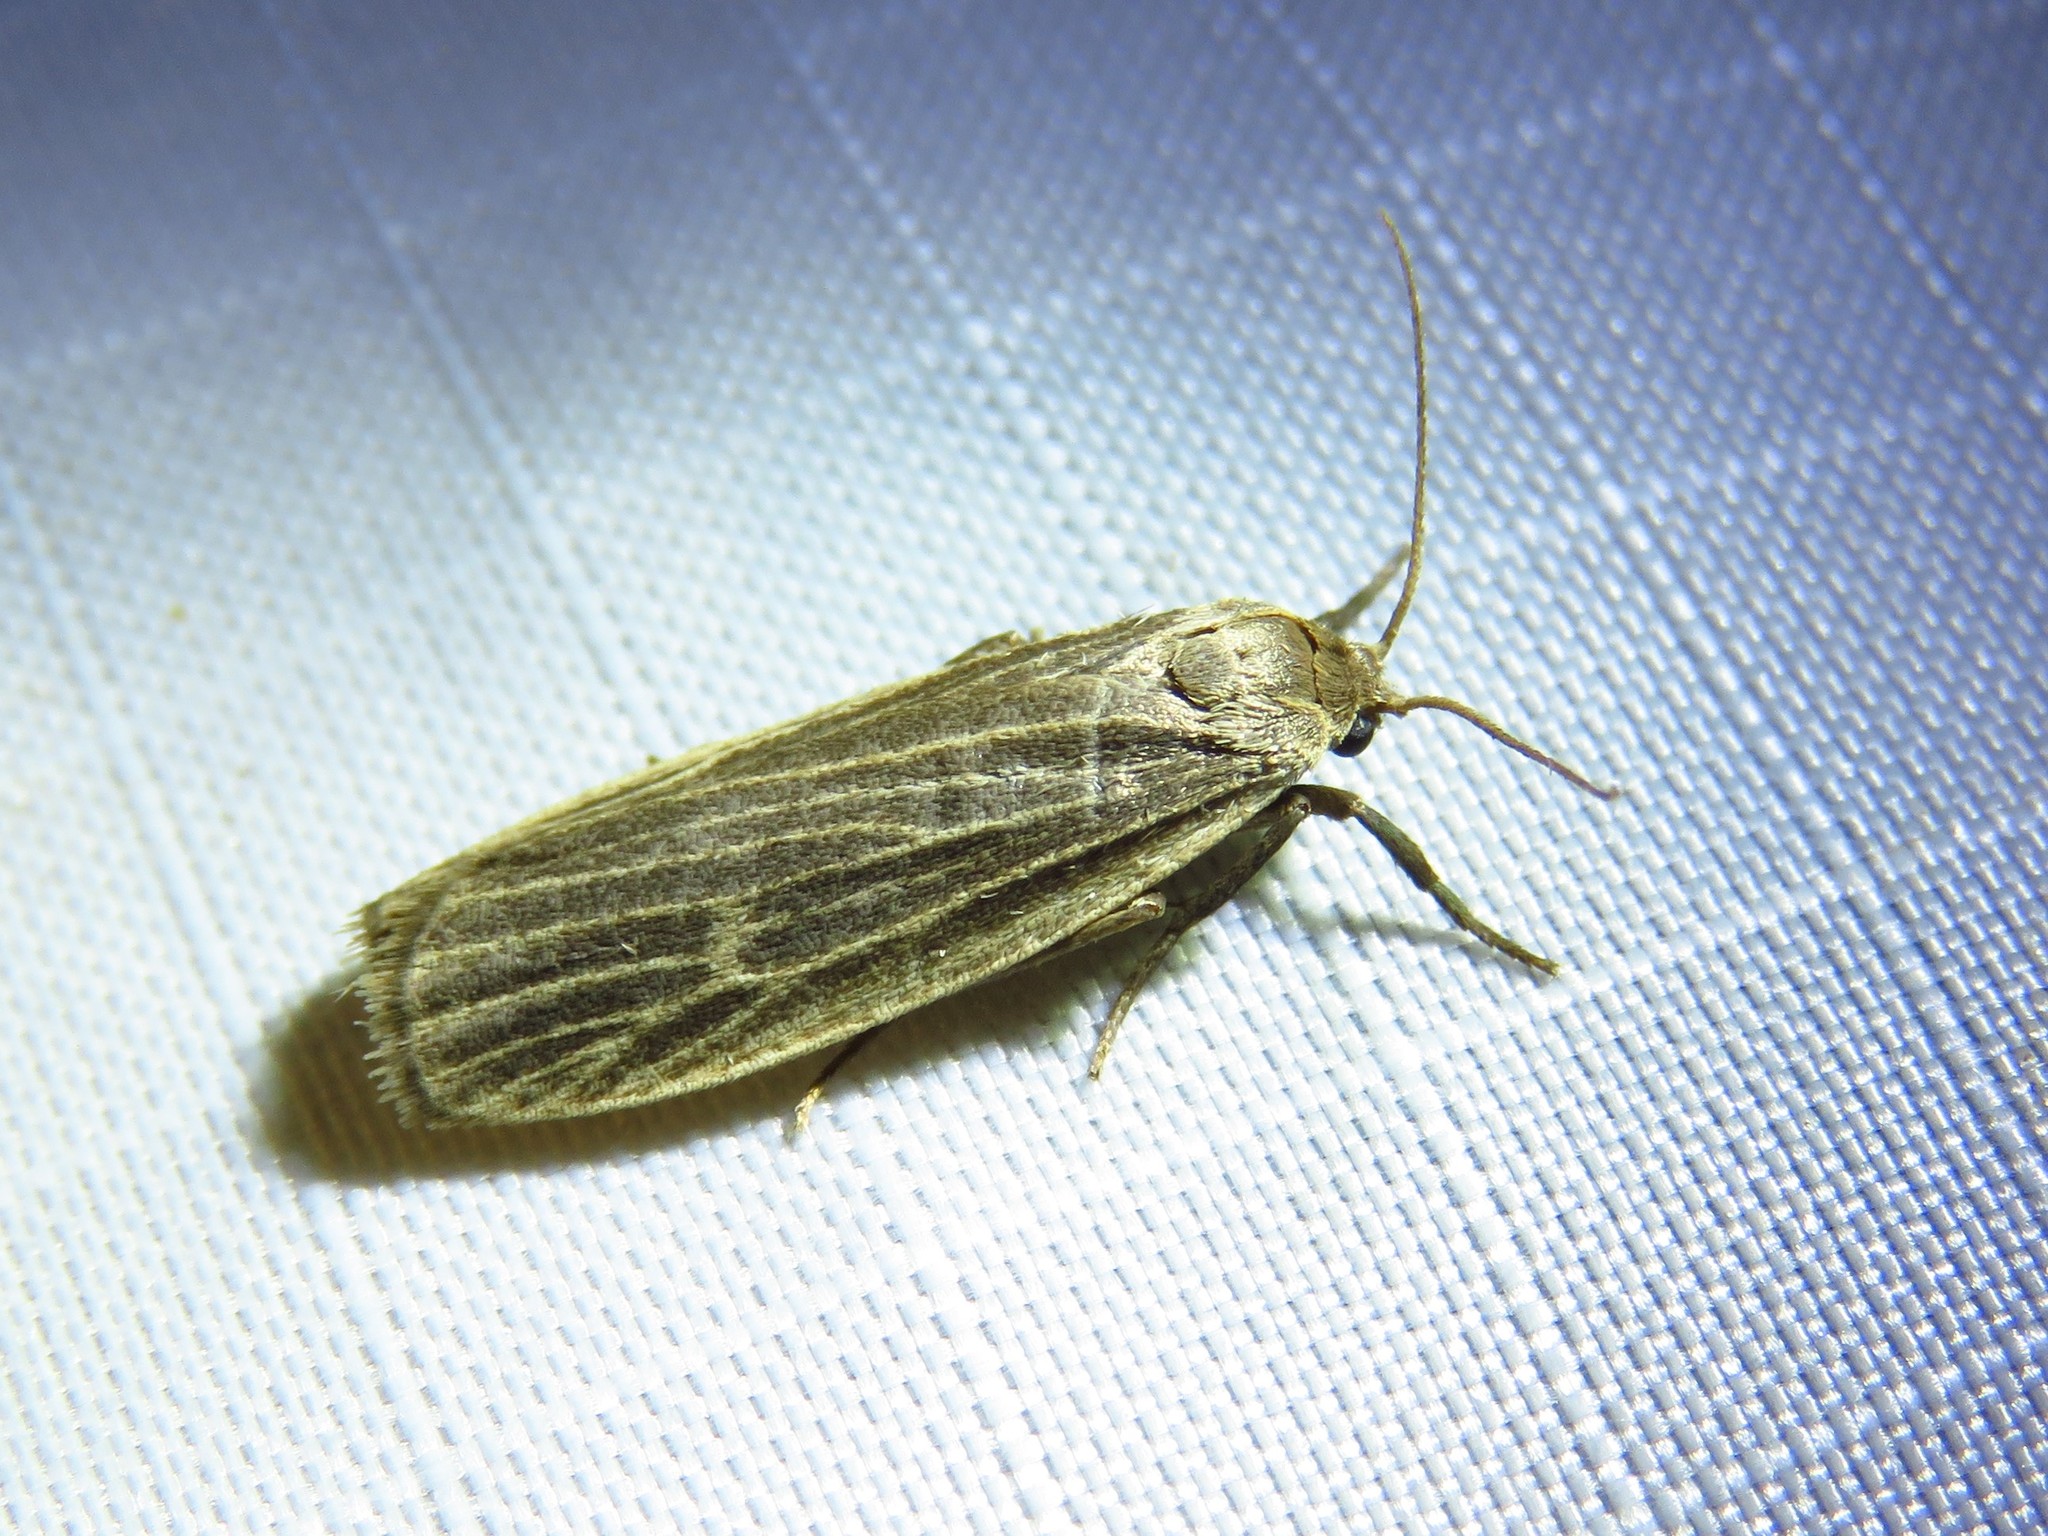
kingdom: Animalia
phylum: Arthropoda
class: Insecta
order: Lepidoptera
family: Erebidae
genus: Crambidia
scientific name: Crambidia pallida
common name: Pale lichen moth
